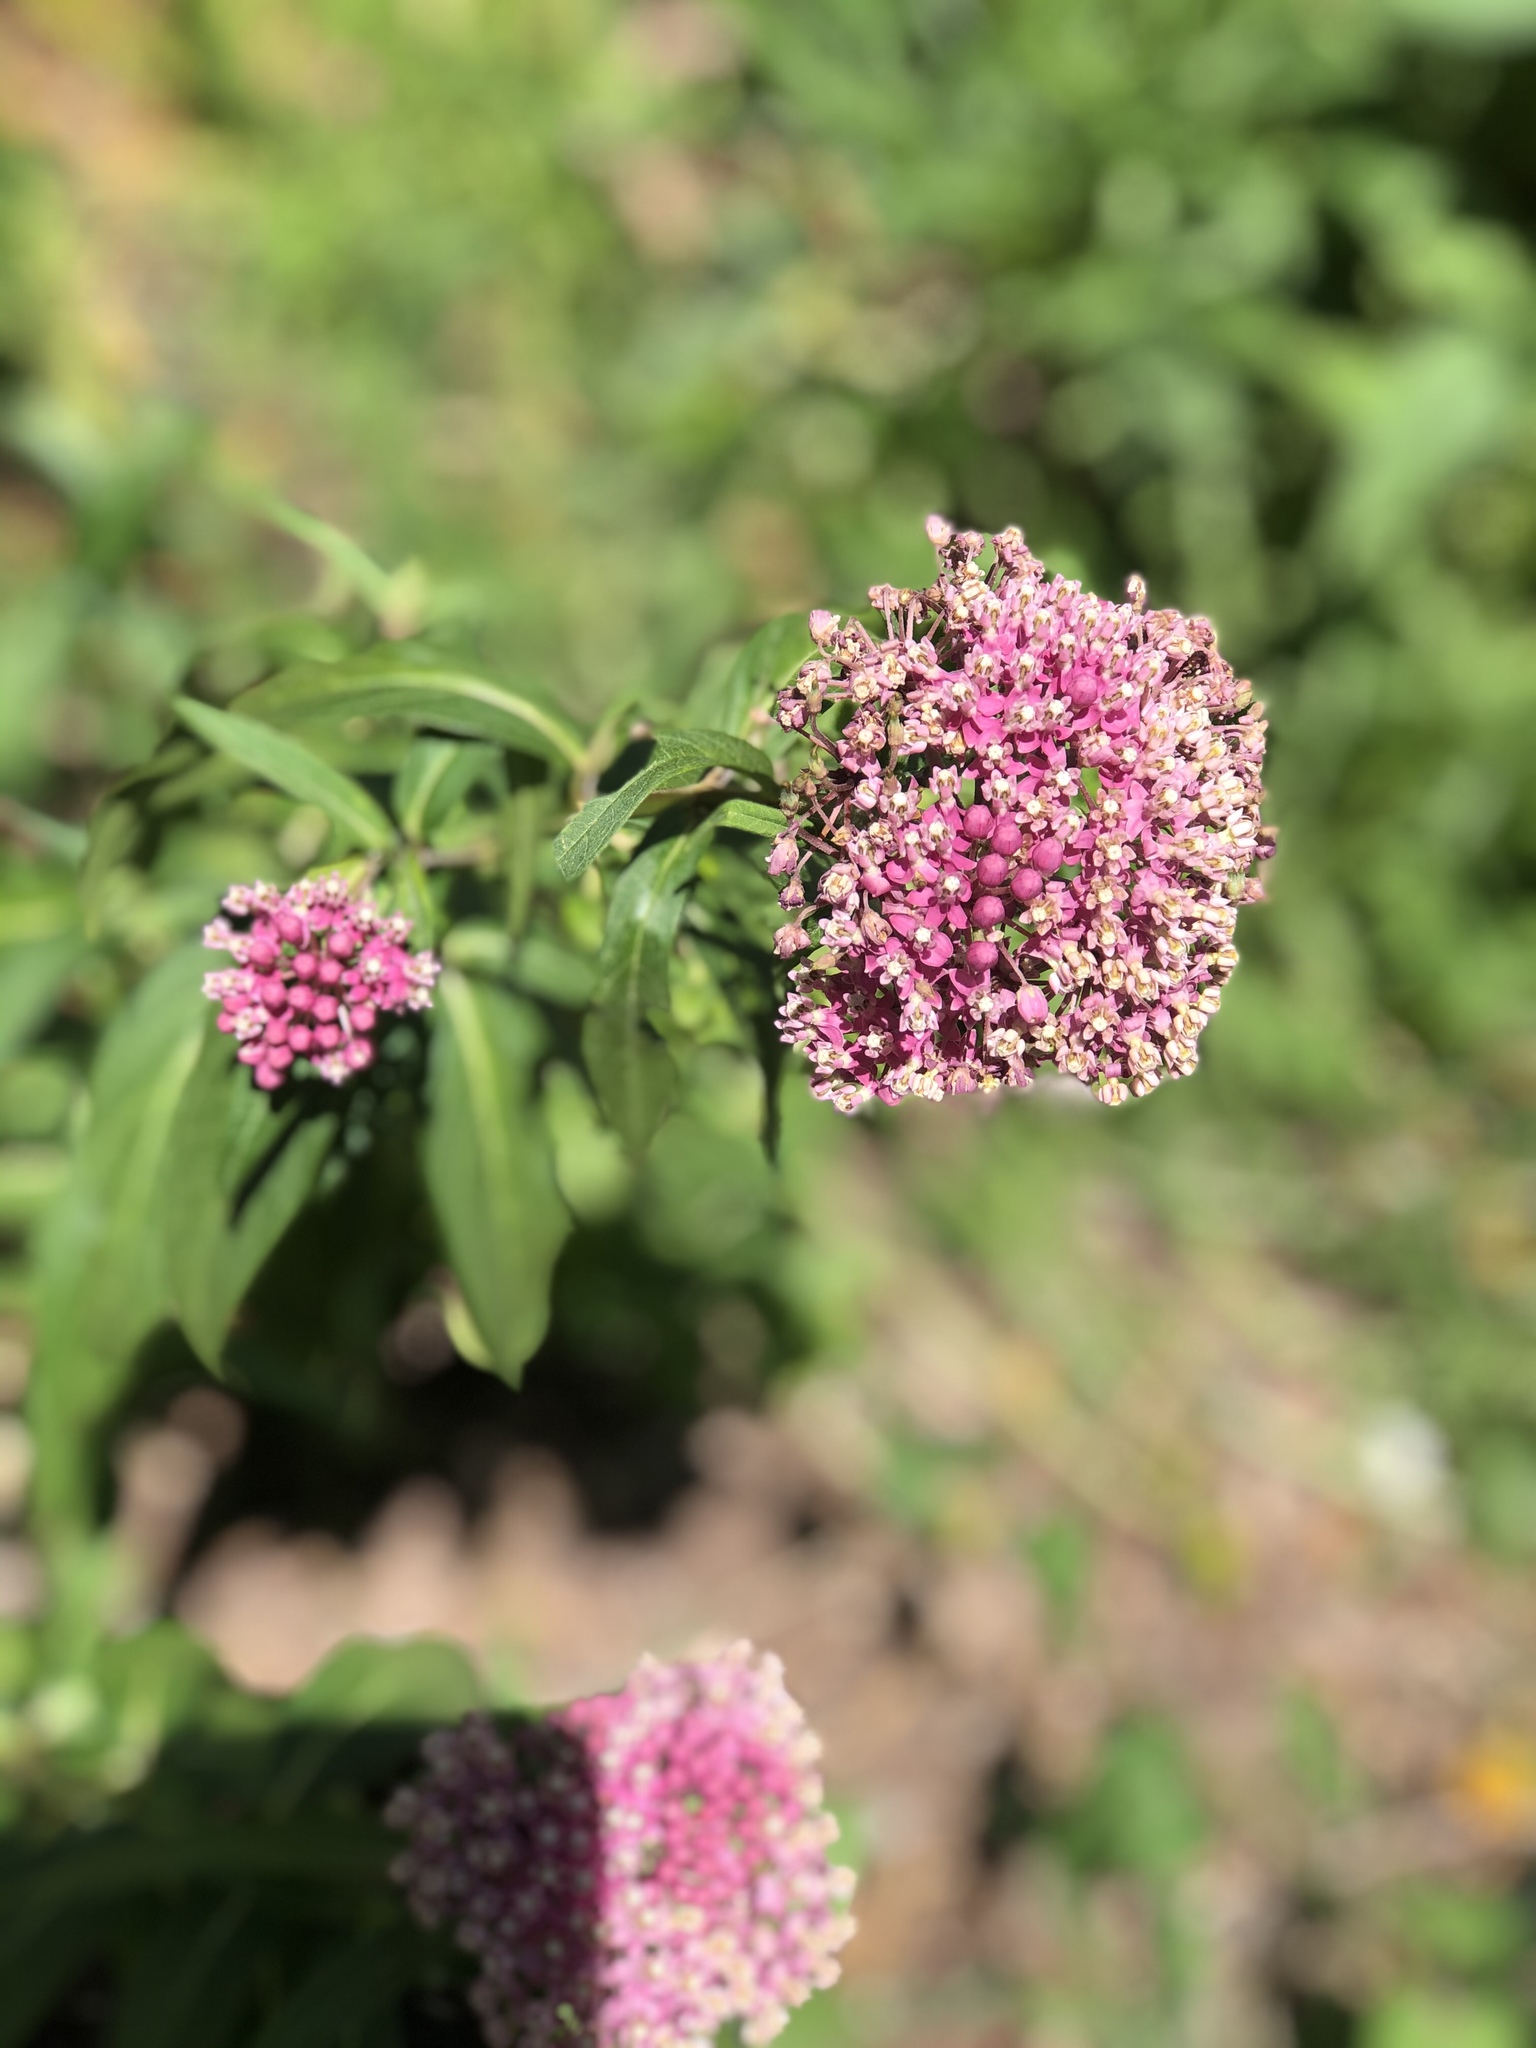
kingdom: Plantae
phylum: Tracheophyta
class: Magnoliopsida
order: Gentianales
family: Apocynaceae
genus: Asclepias
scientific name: Asclepias incarnata
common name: Swamp milkweed
